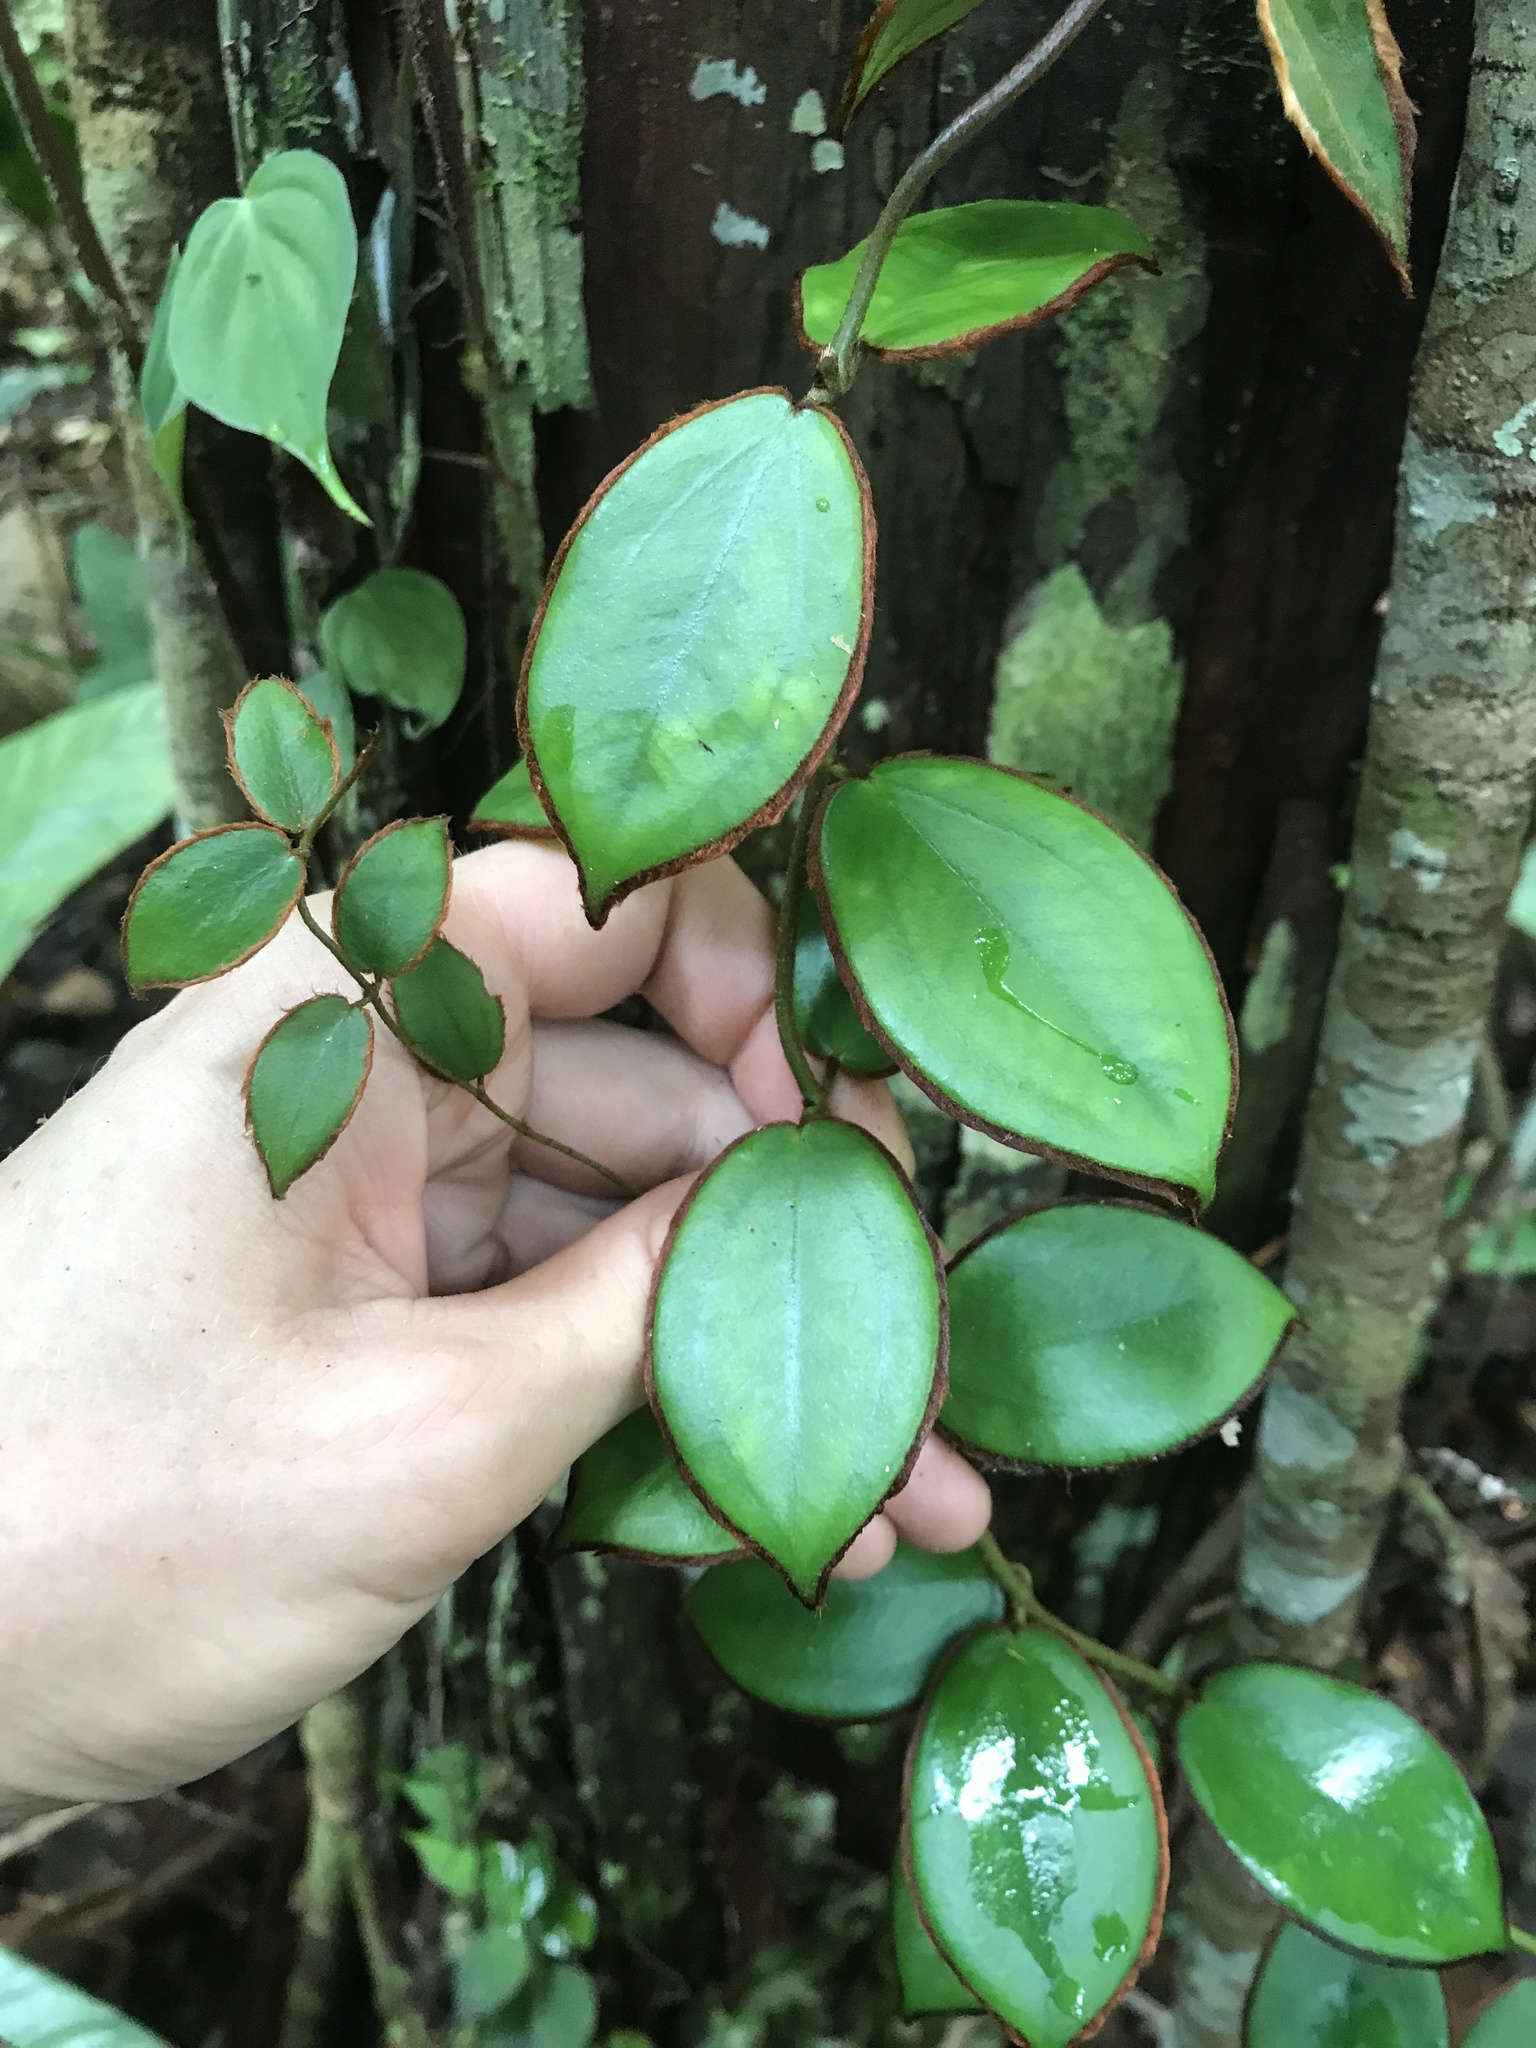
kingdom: Plantae
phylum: Tracheophyta
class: Magnoliopsida
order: Myrtales
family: Melastomataceae
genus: Adelobotrys
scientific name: Adelobotrys praetextus
